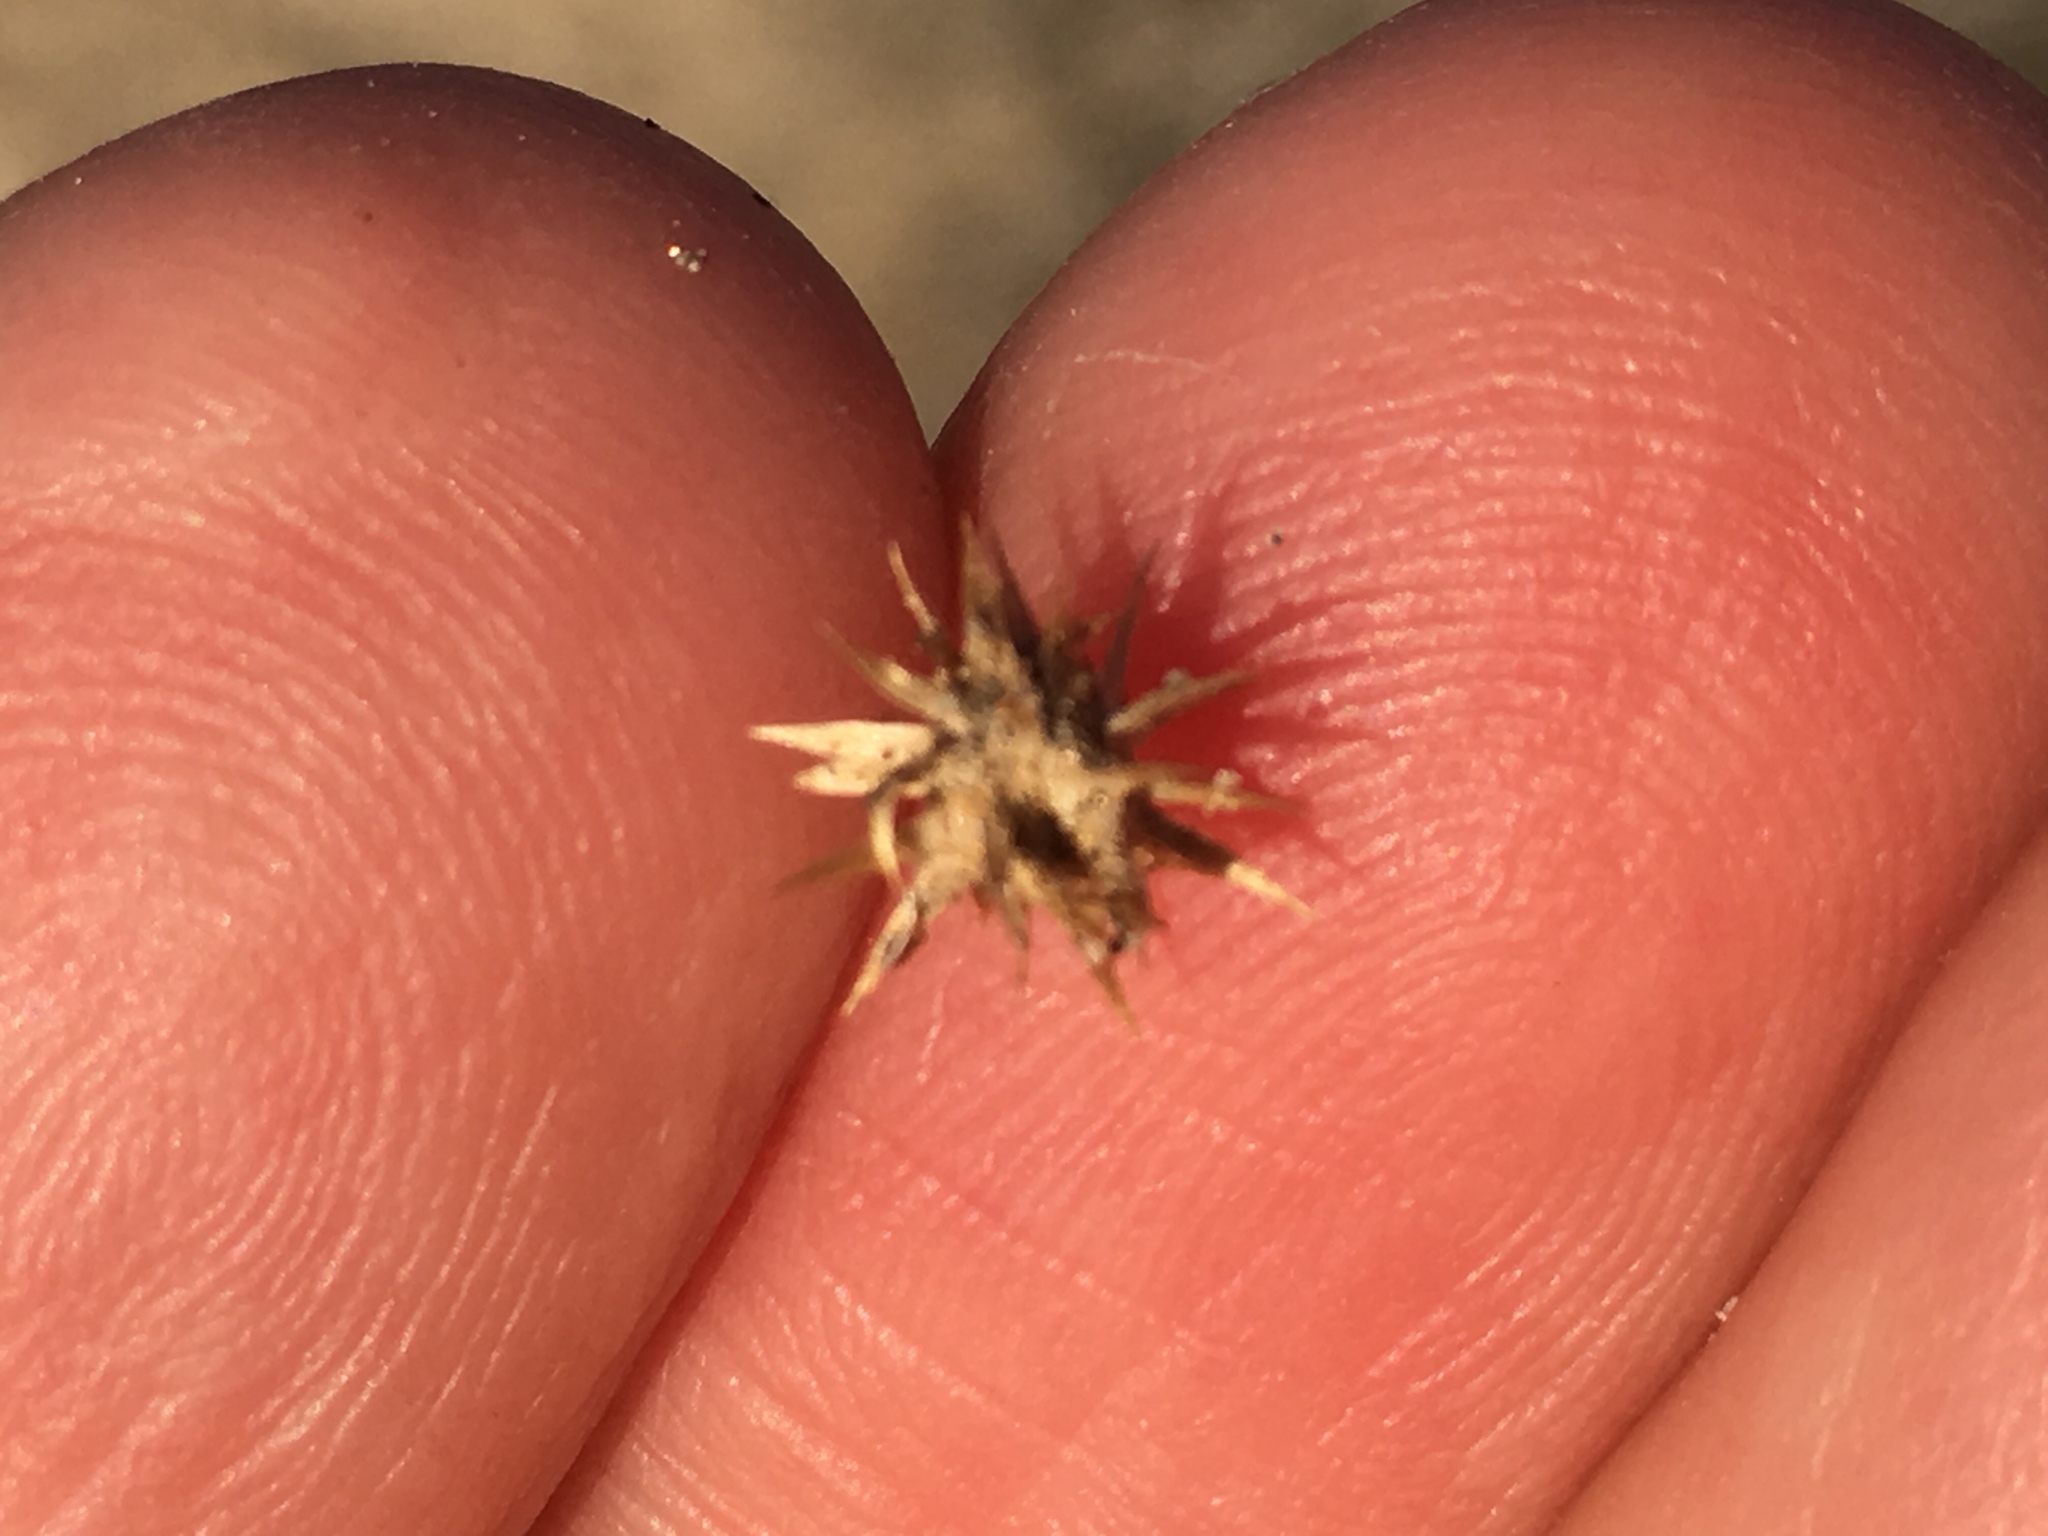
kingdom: Plantae
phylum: Tracheophyta
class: Magnoliopsida
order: Asterales
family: Asteraceae
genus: Ambrosia
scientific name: Ambrosia dumosa
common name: Bur-sage
